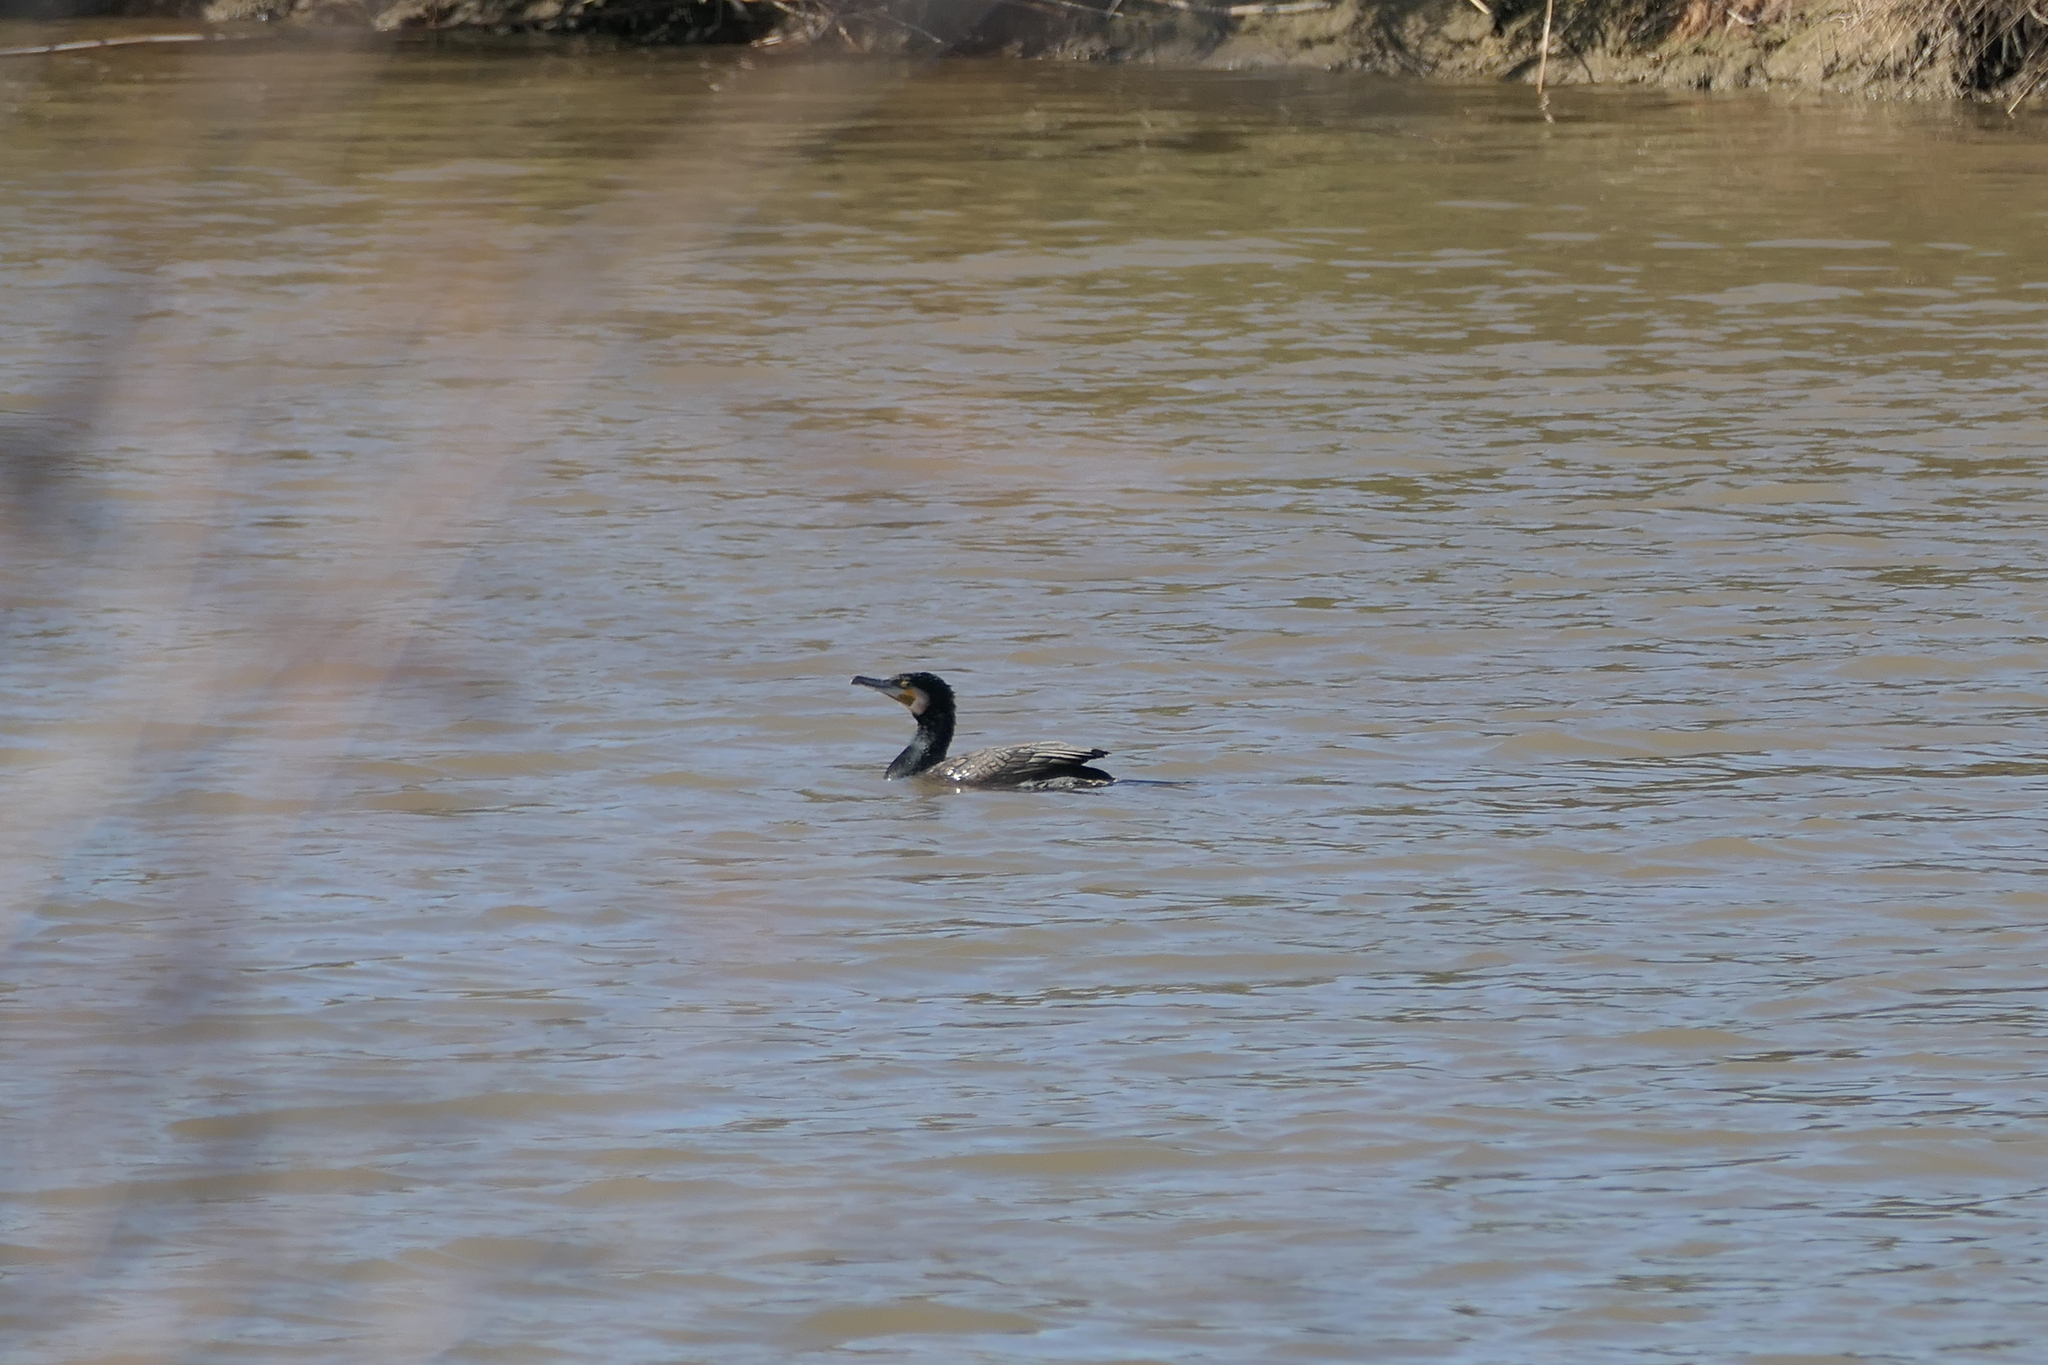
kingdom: Animalia
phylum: Chordata
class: Aves
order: Suliformes
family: Phalacrocoracidae
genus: Phalacrocorax
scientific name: Phalacrocorax carbo
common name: Great cormorant
